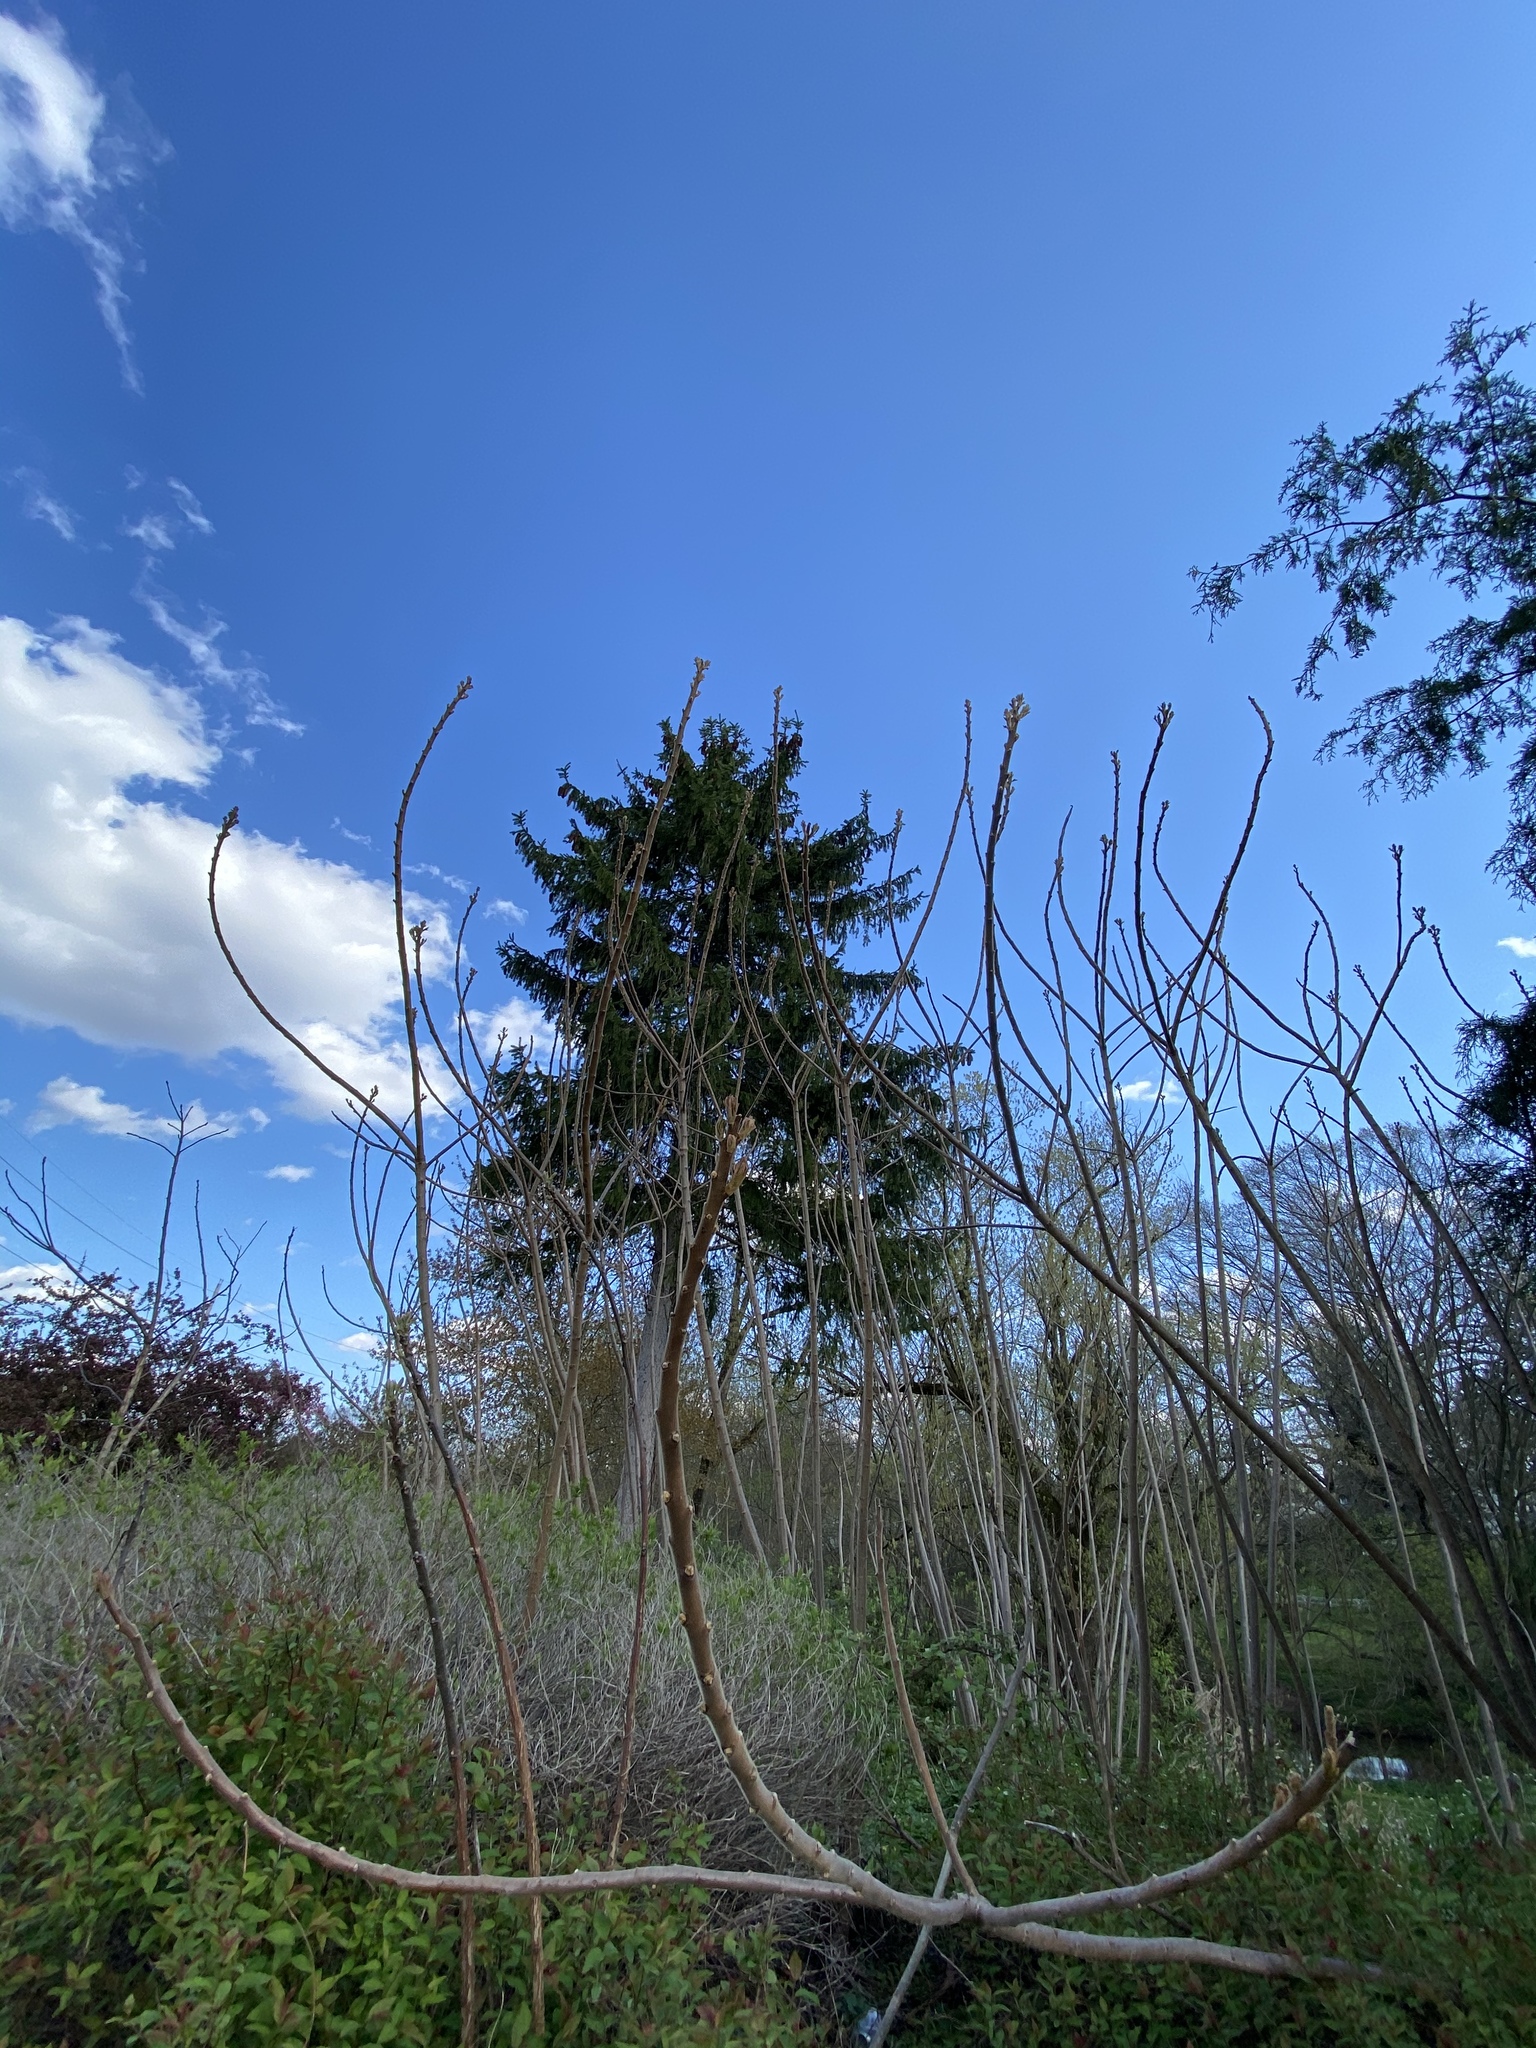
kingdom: Plantae
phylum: Tracheophyta
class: Magnoliopsida
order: Sapindales
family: Anacardiaceae
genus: Rhus
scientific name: Rhus typhina
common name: Staghorn sumac
